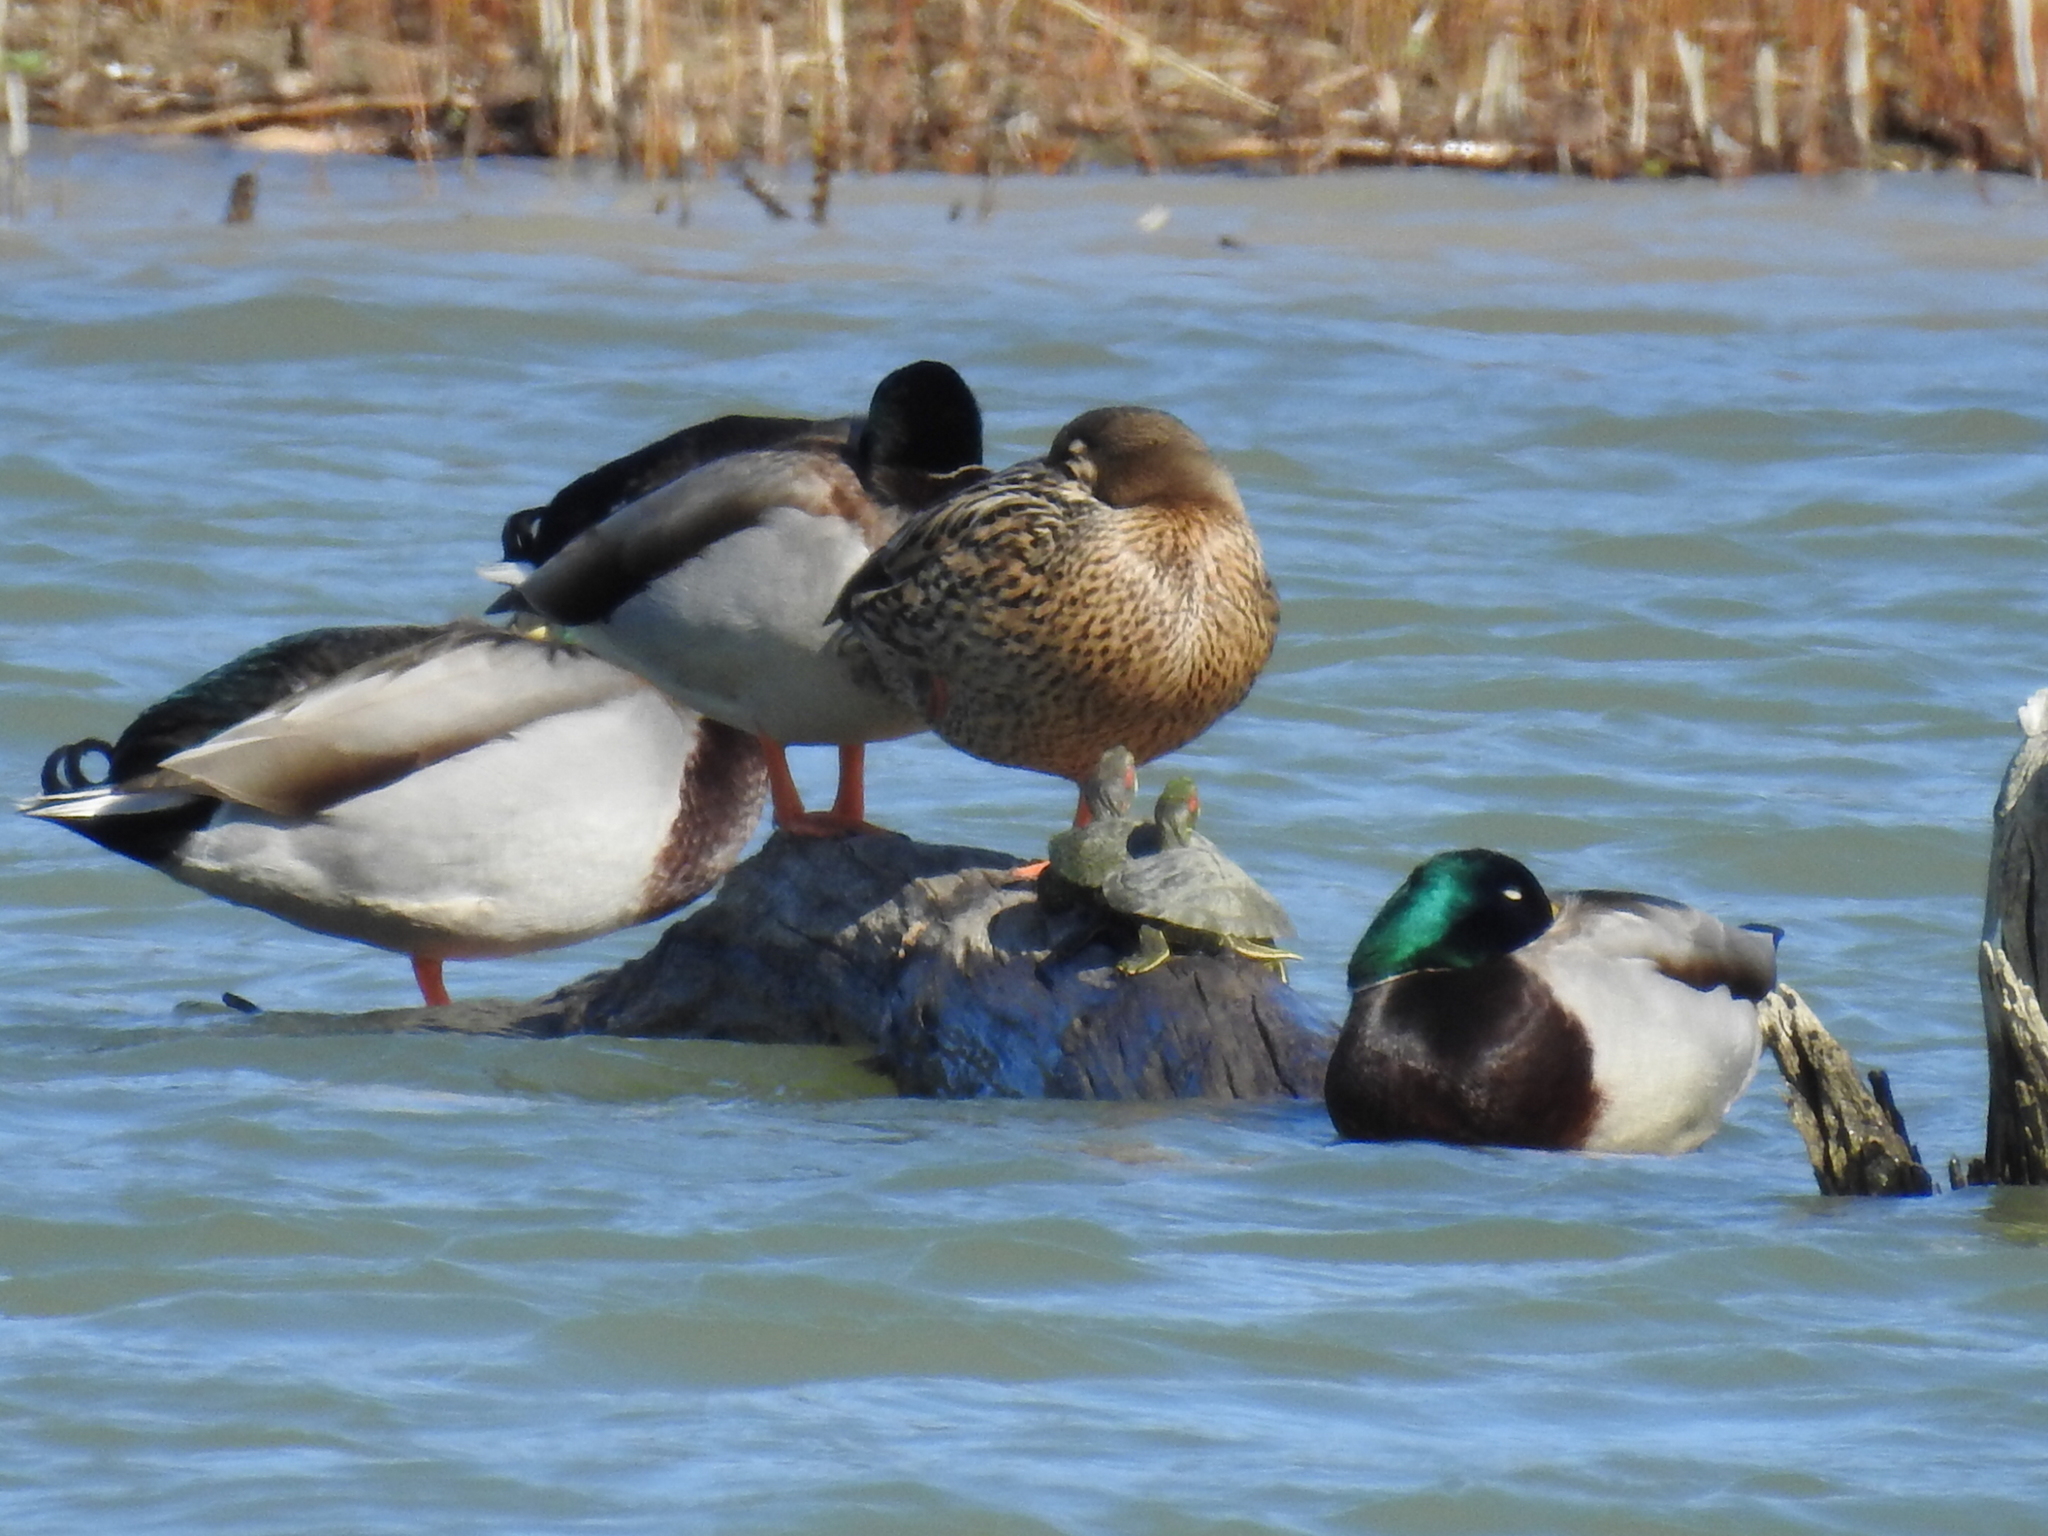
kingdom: Animalia
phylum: Chordata
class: Aves
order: Anseriformes
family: Anatidae
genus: Anas
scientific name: Anas platyrhynchos
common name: Mallard
